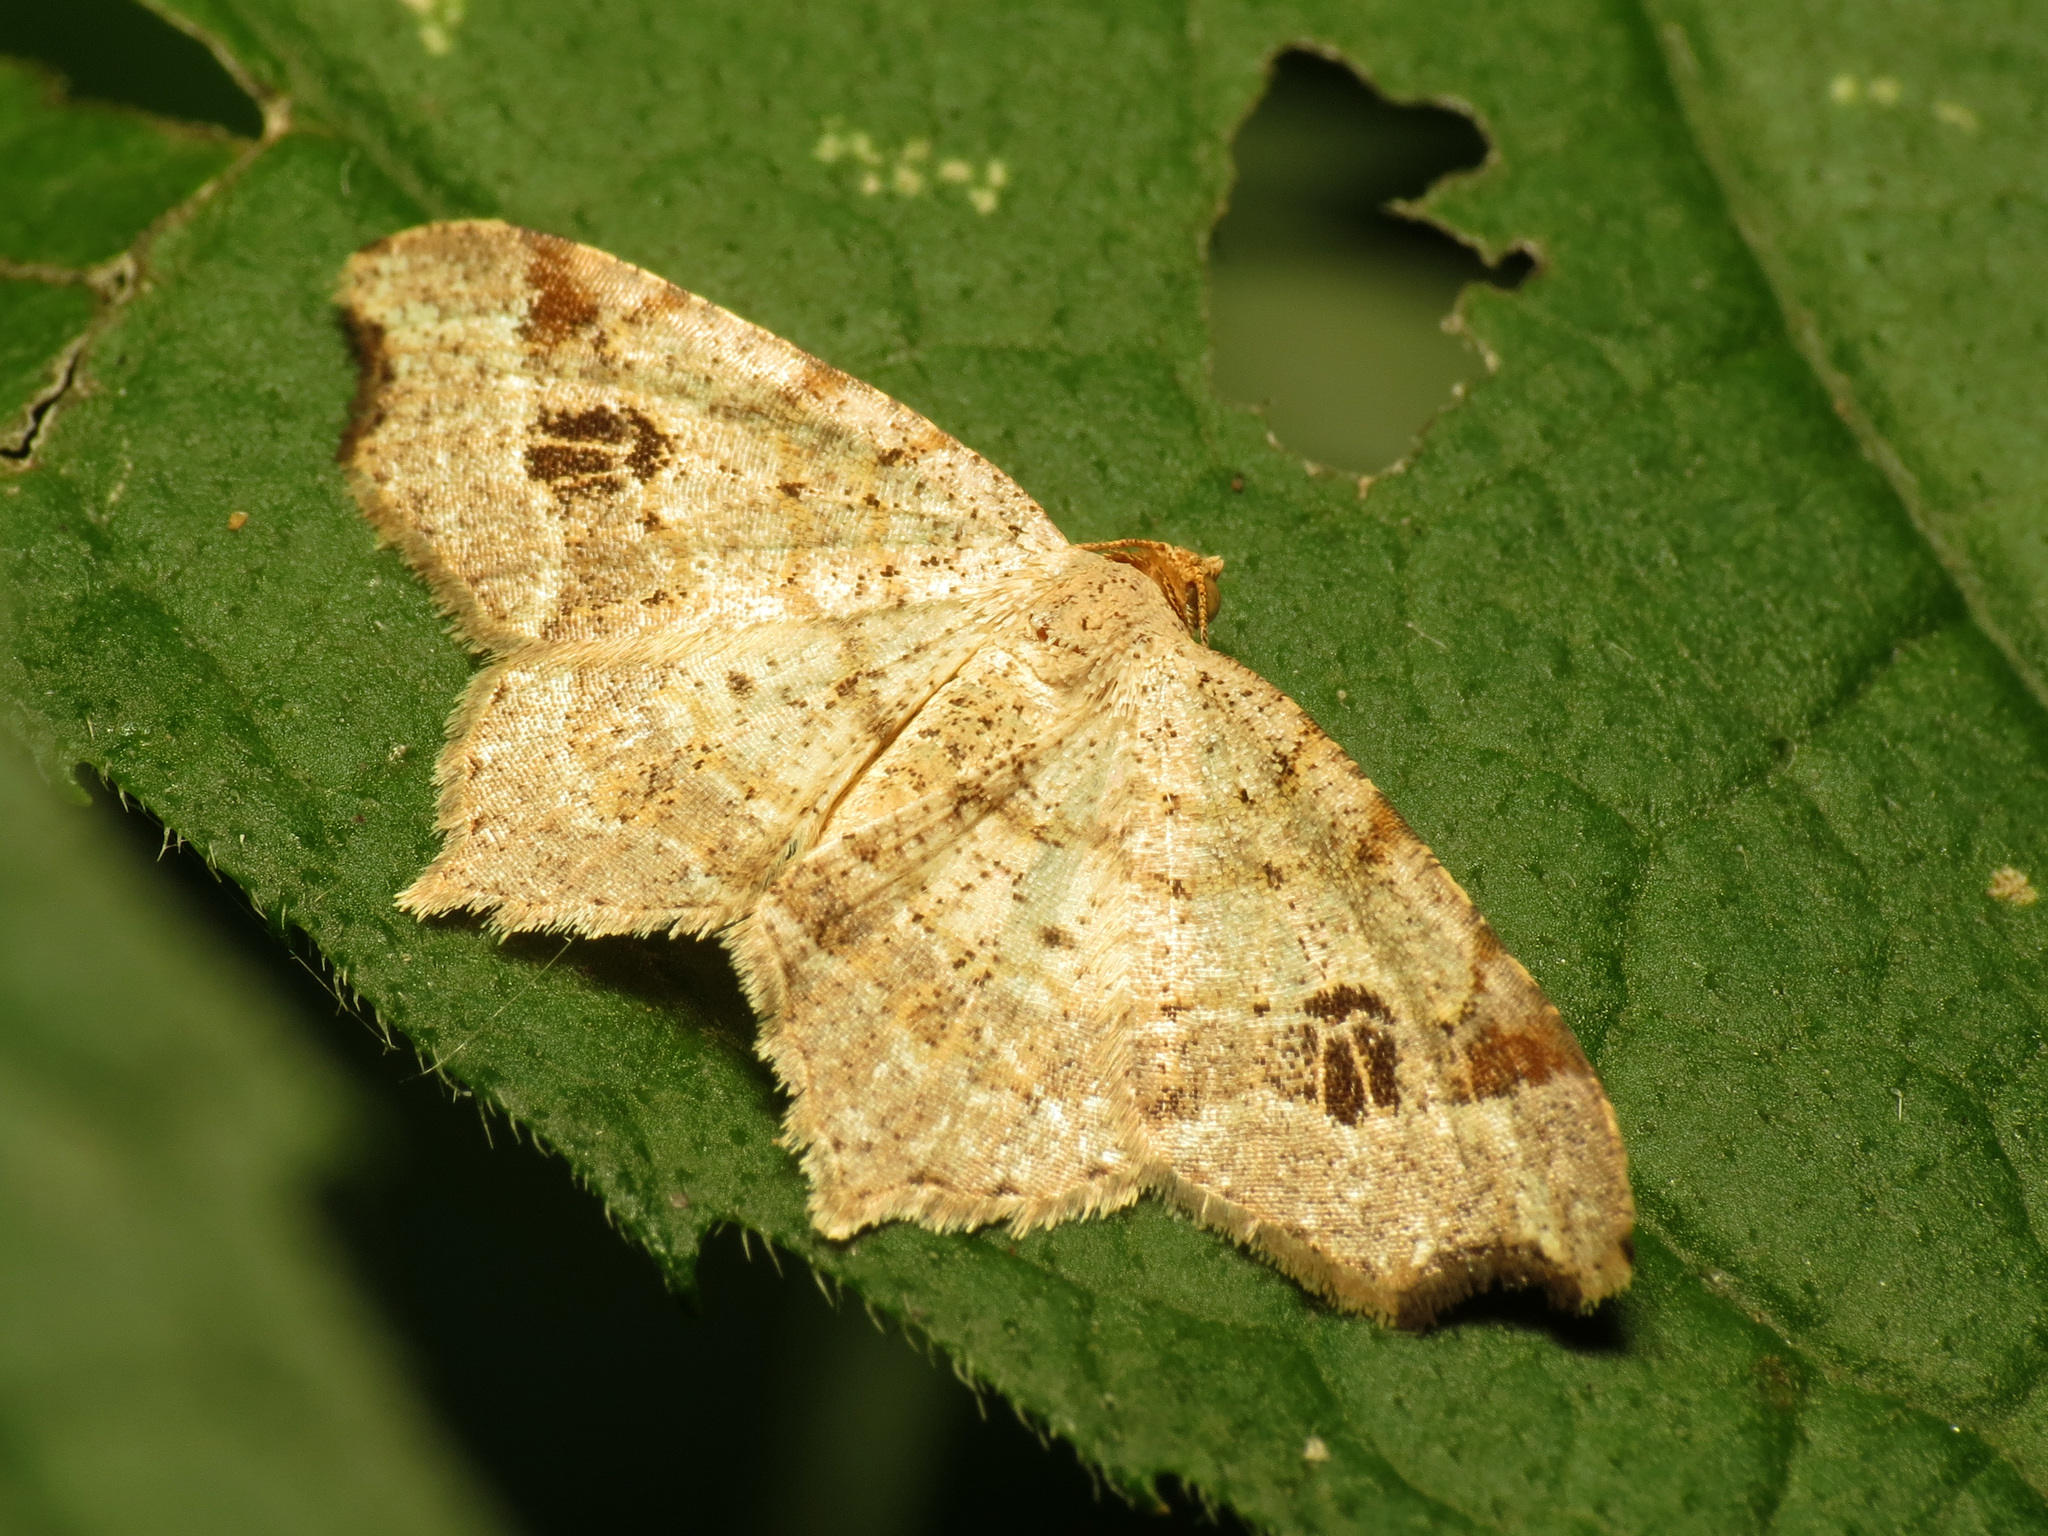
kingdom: Animalia
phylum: Arthropoda
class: Insecta
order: Lepidoptera
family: Geometridae
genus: Macaria
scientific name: Macaria aemulataria
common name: Common angle
